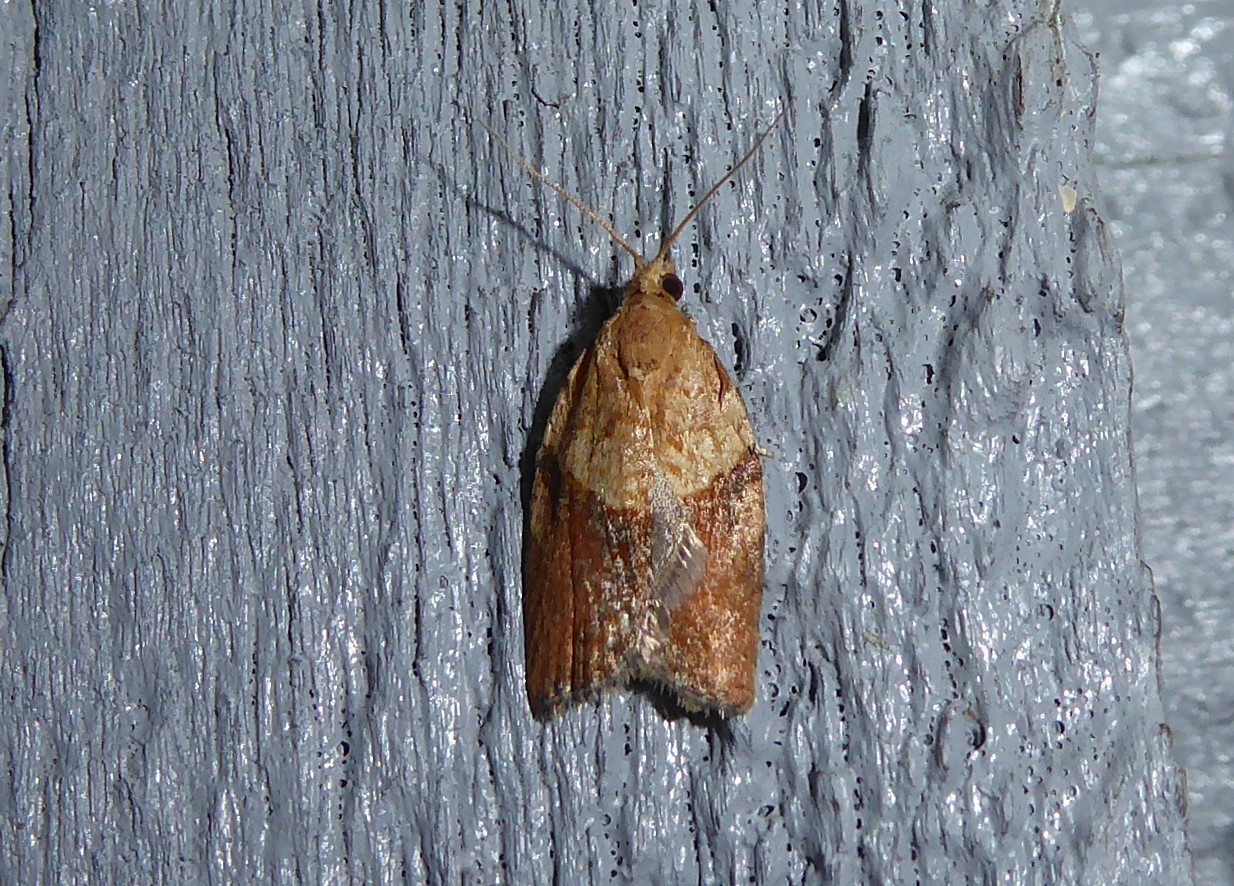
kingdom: Animalia
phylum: Arthropoda
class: Insecta
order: Lepidoptera
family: Tortricidae
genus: Epiphyas
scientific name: Epiphyas postvittana
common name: Light brown apple moth
